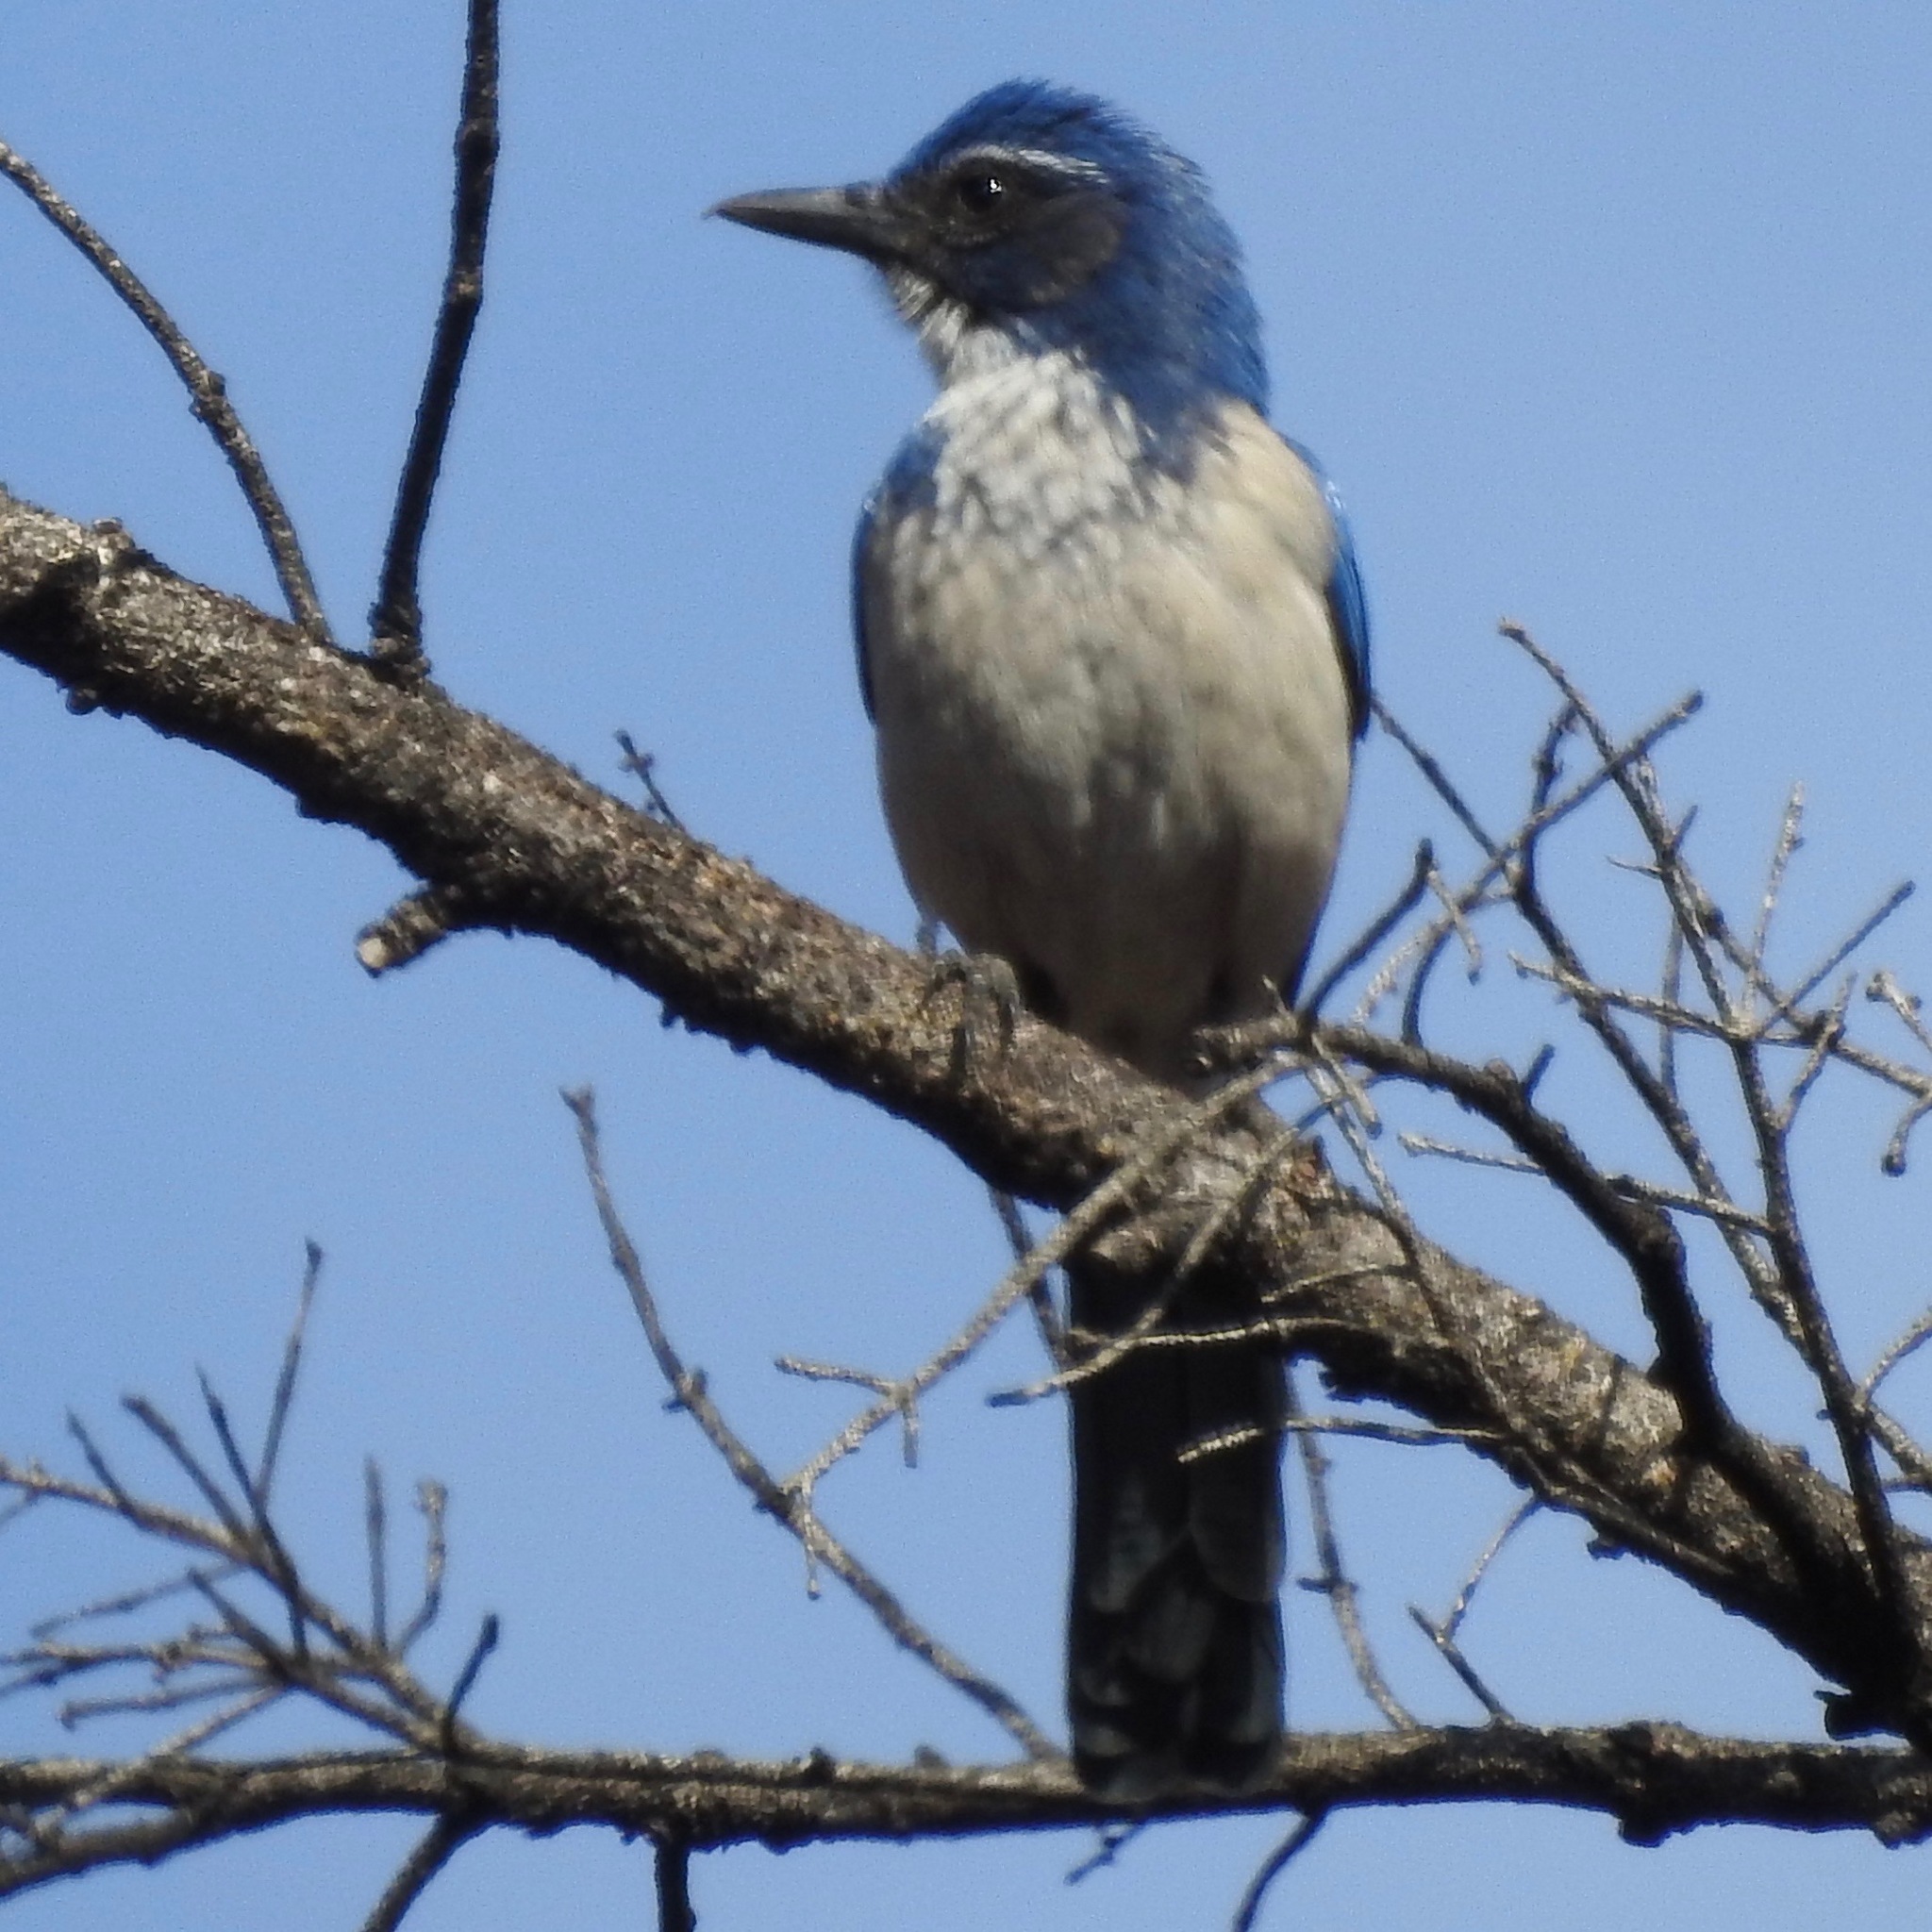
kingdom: Animalia
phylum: Chordata
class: Aves
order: Passeriformes
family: Corvidae
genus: Aphelocoma
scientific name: Aphelocoma californica
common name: California scrub-jay
